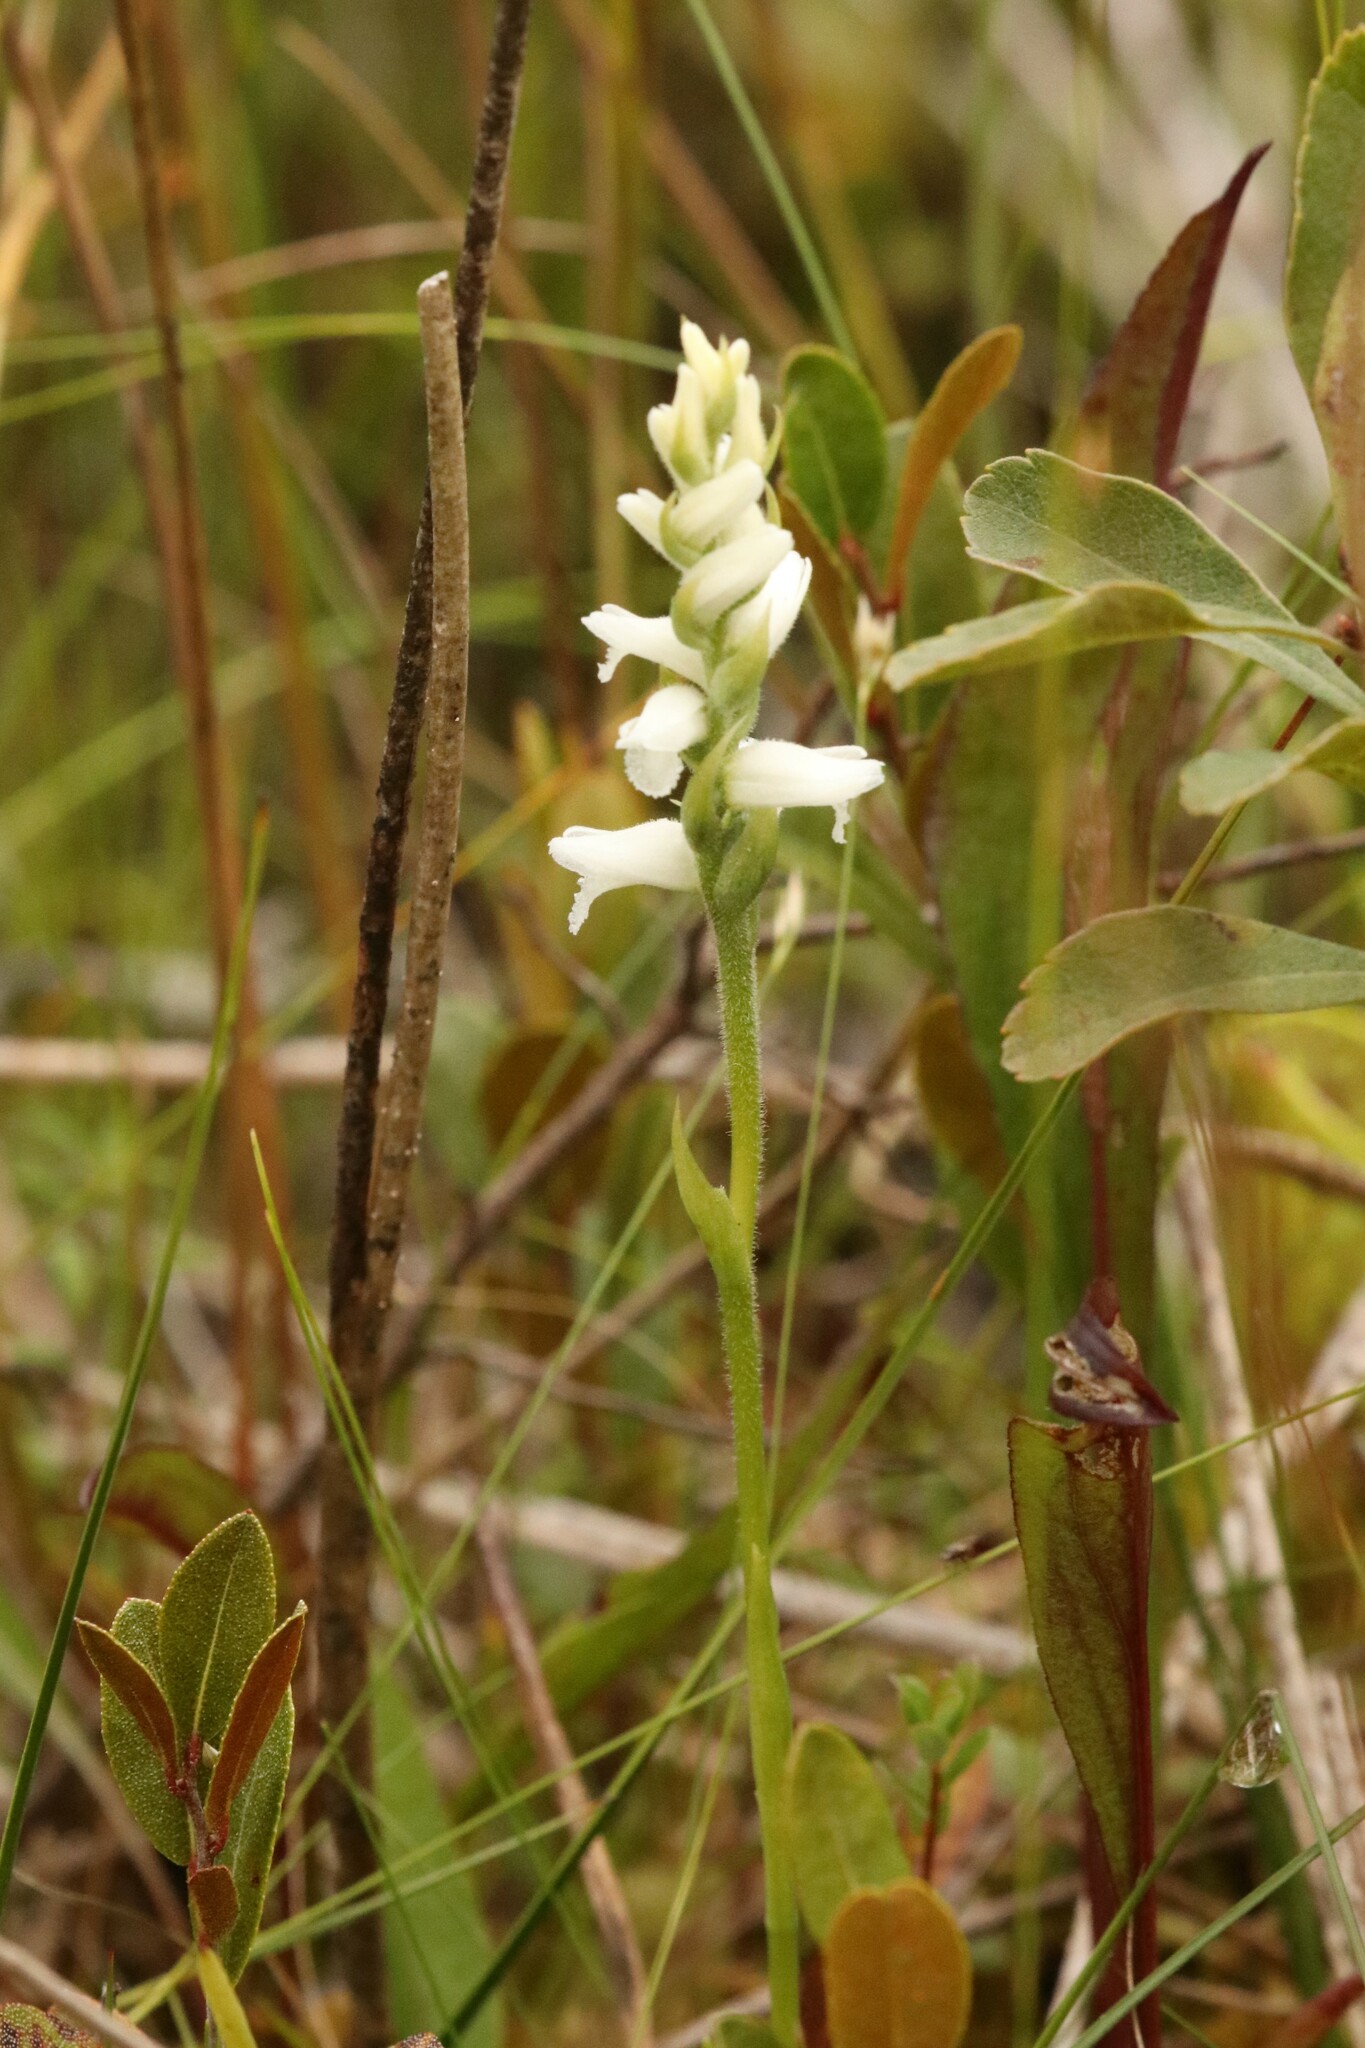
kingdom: Plantae
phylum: Tracheophyta
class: Liliopsida
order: Asparagales
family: Orchidaceae
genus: Spiranthes
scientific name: Spiranthes arcisepala
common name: Appalachian ladies'-tresses
